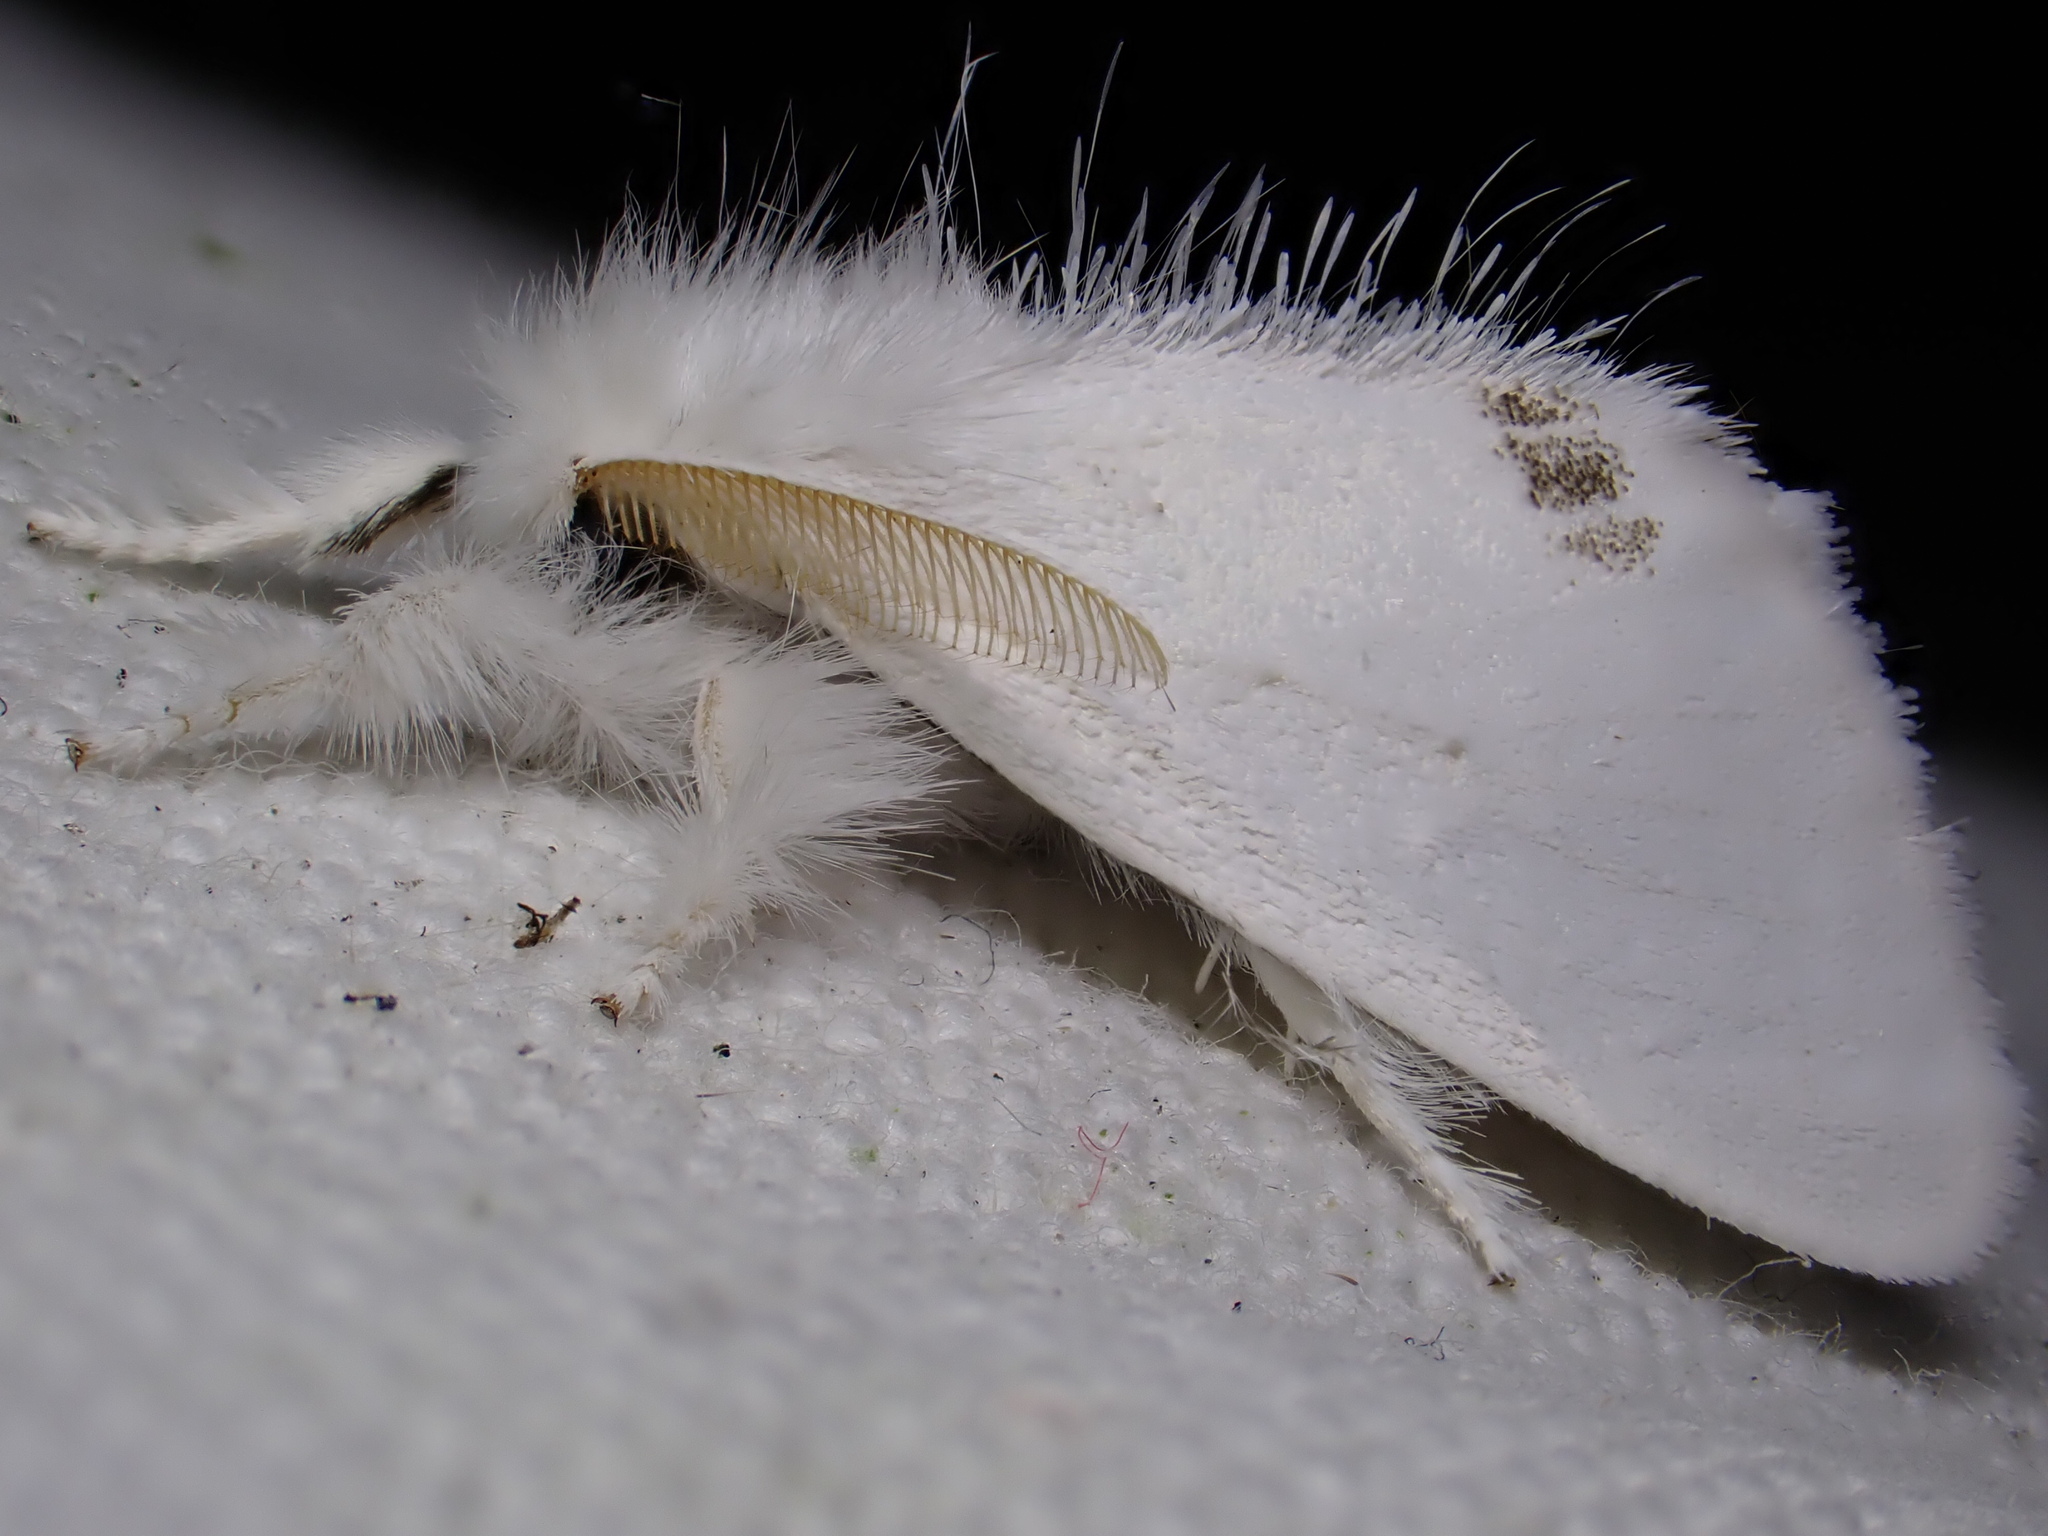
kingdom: Animalia
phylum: Arthropoda
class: Insecta
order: Lepidoptera
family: Erebidae
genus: Sphrageidus
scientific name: Sphrageidus similis
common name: Yellow-tail
